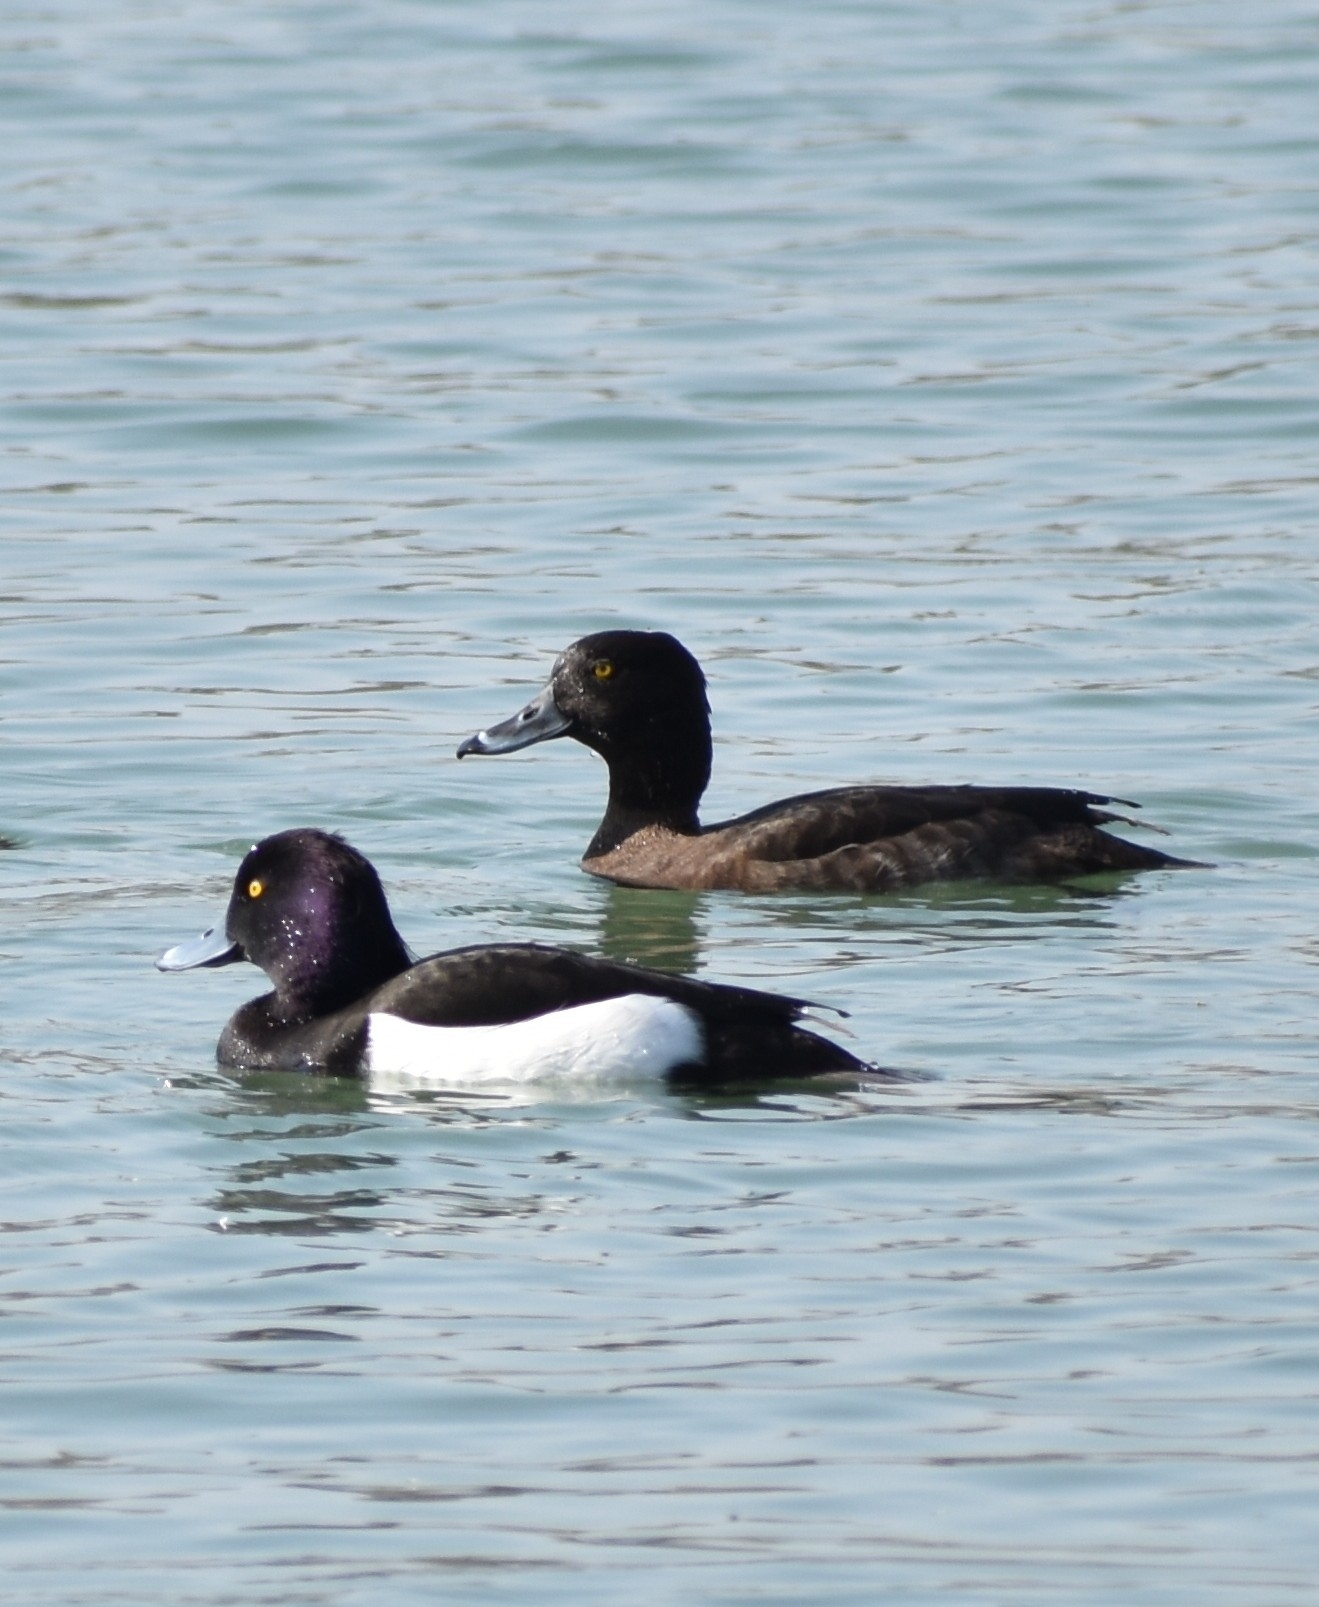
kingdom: Animalia
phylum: Chordata
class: Aves
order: Anseriformes
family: Anatidae
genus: Aythya
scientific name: Aythya fuligula
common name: Tufted duck
